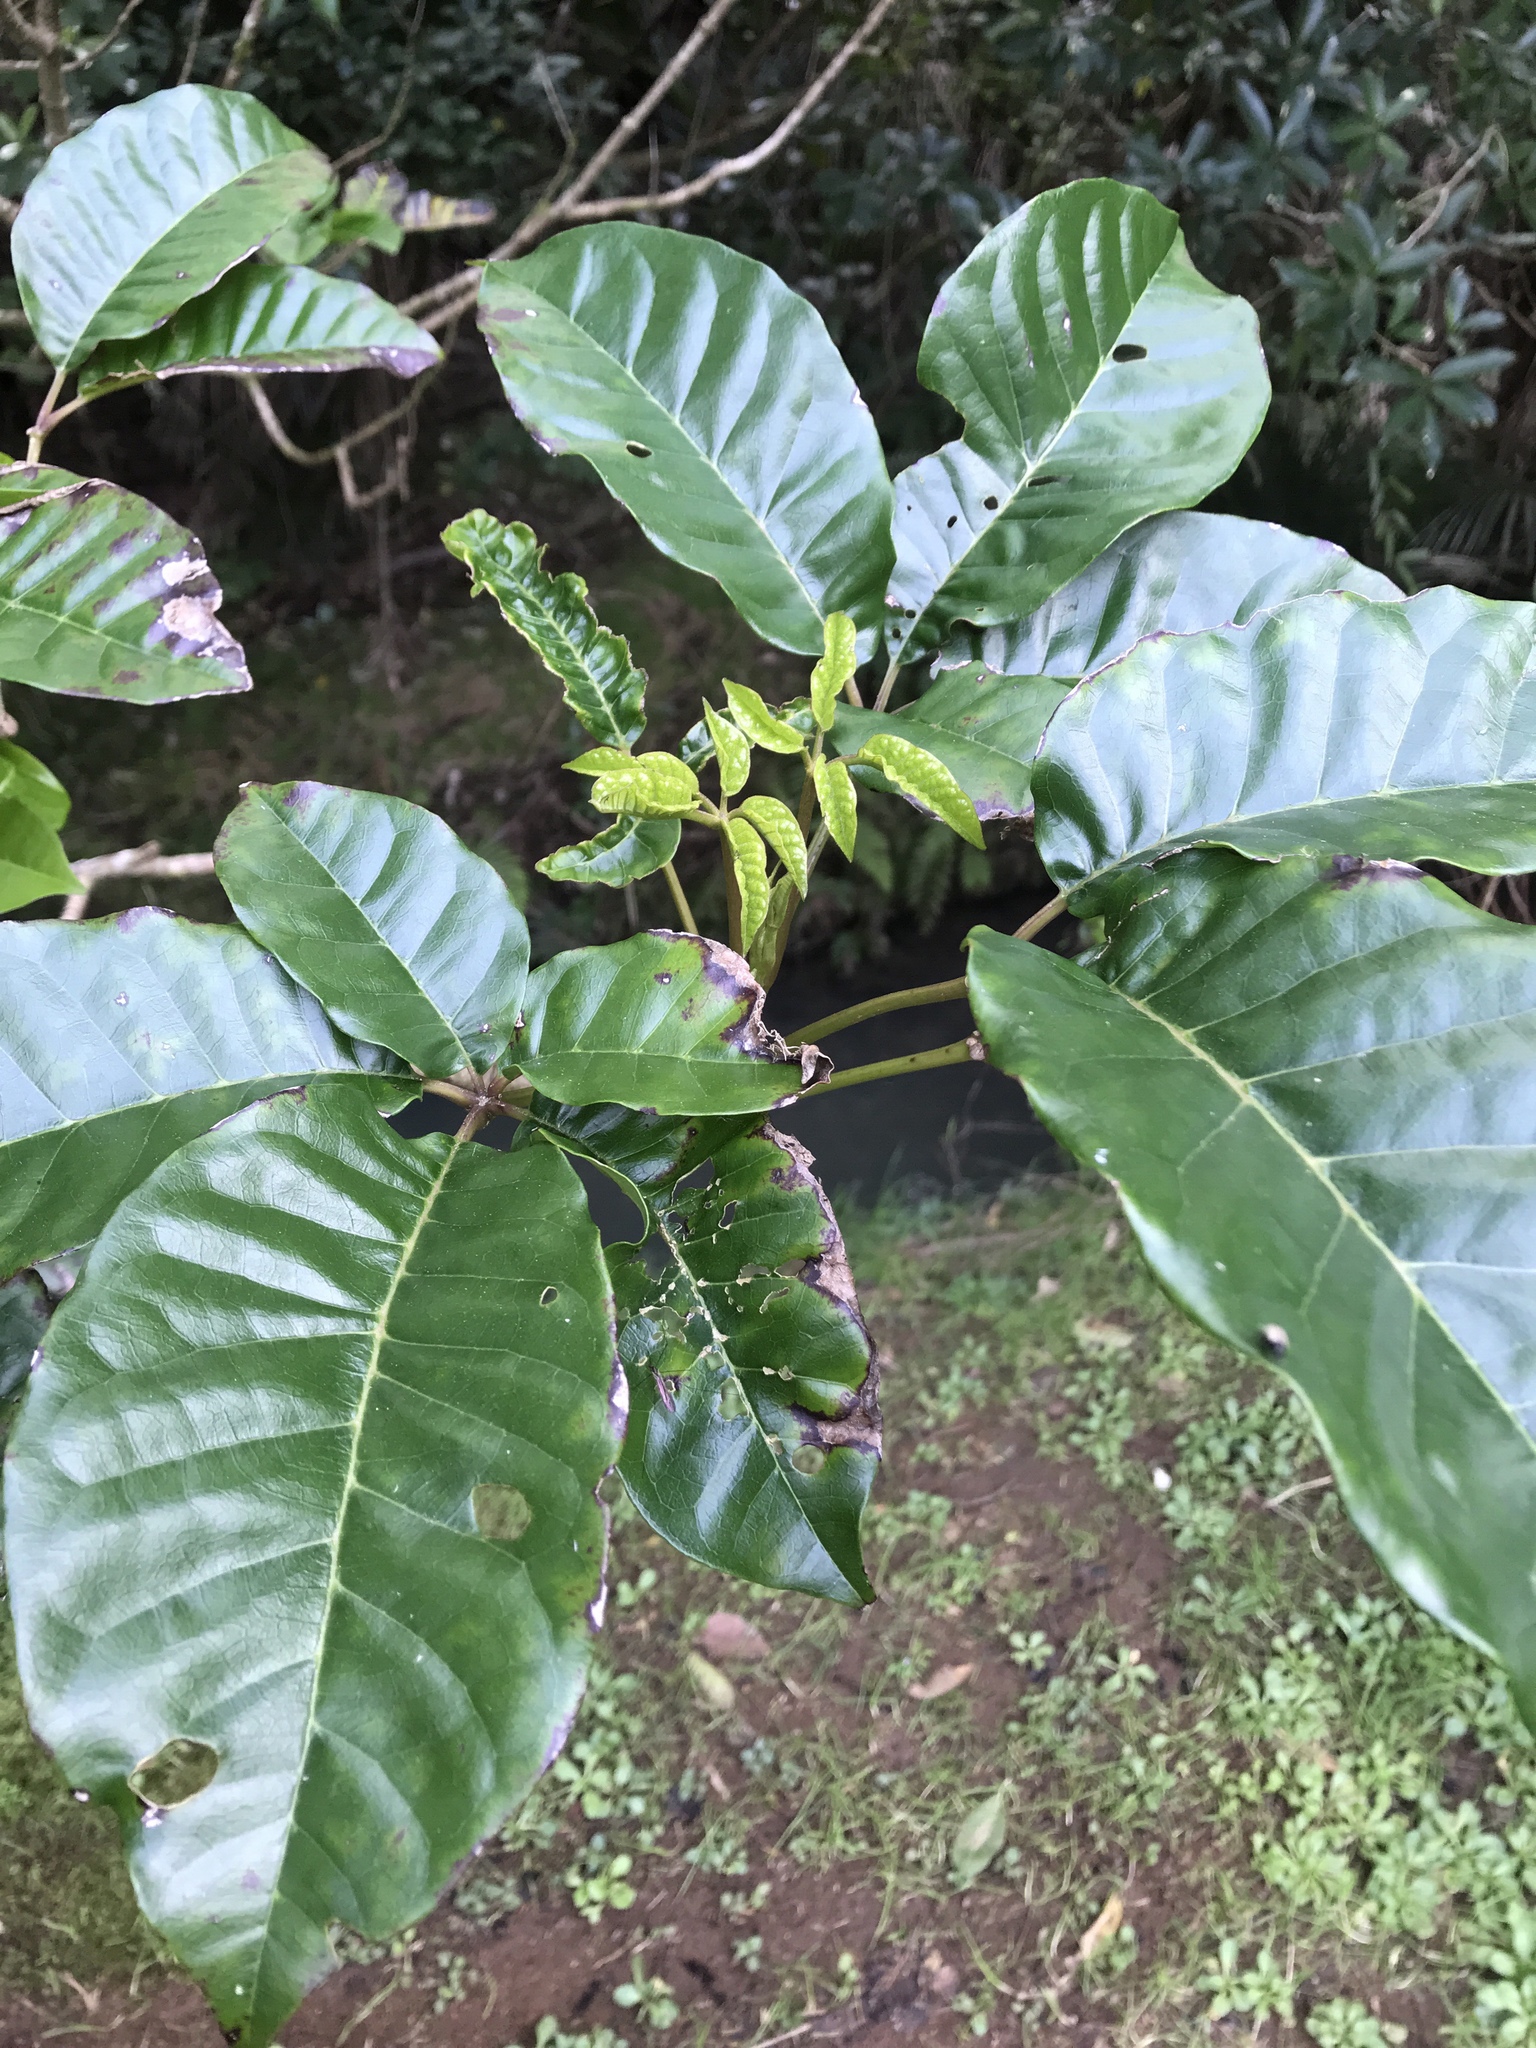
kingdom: Plantae
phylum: Tracheophyta
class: Magnoliopsida
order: Lamiales
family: Lamiaceae
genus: Vitex
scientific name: Vitex lucens
